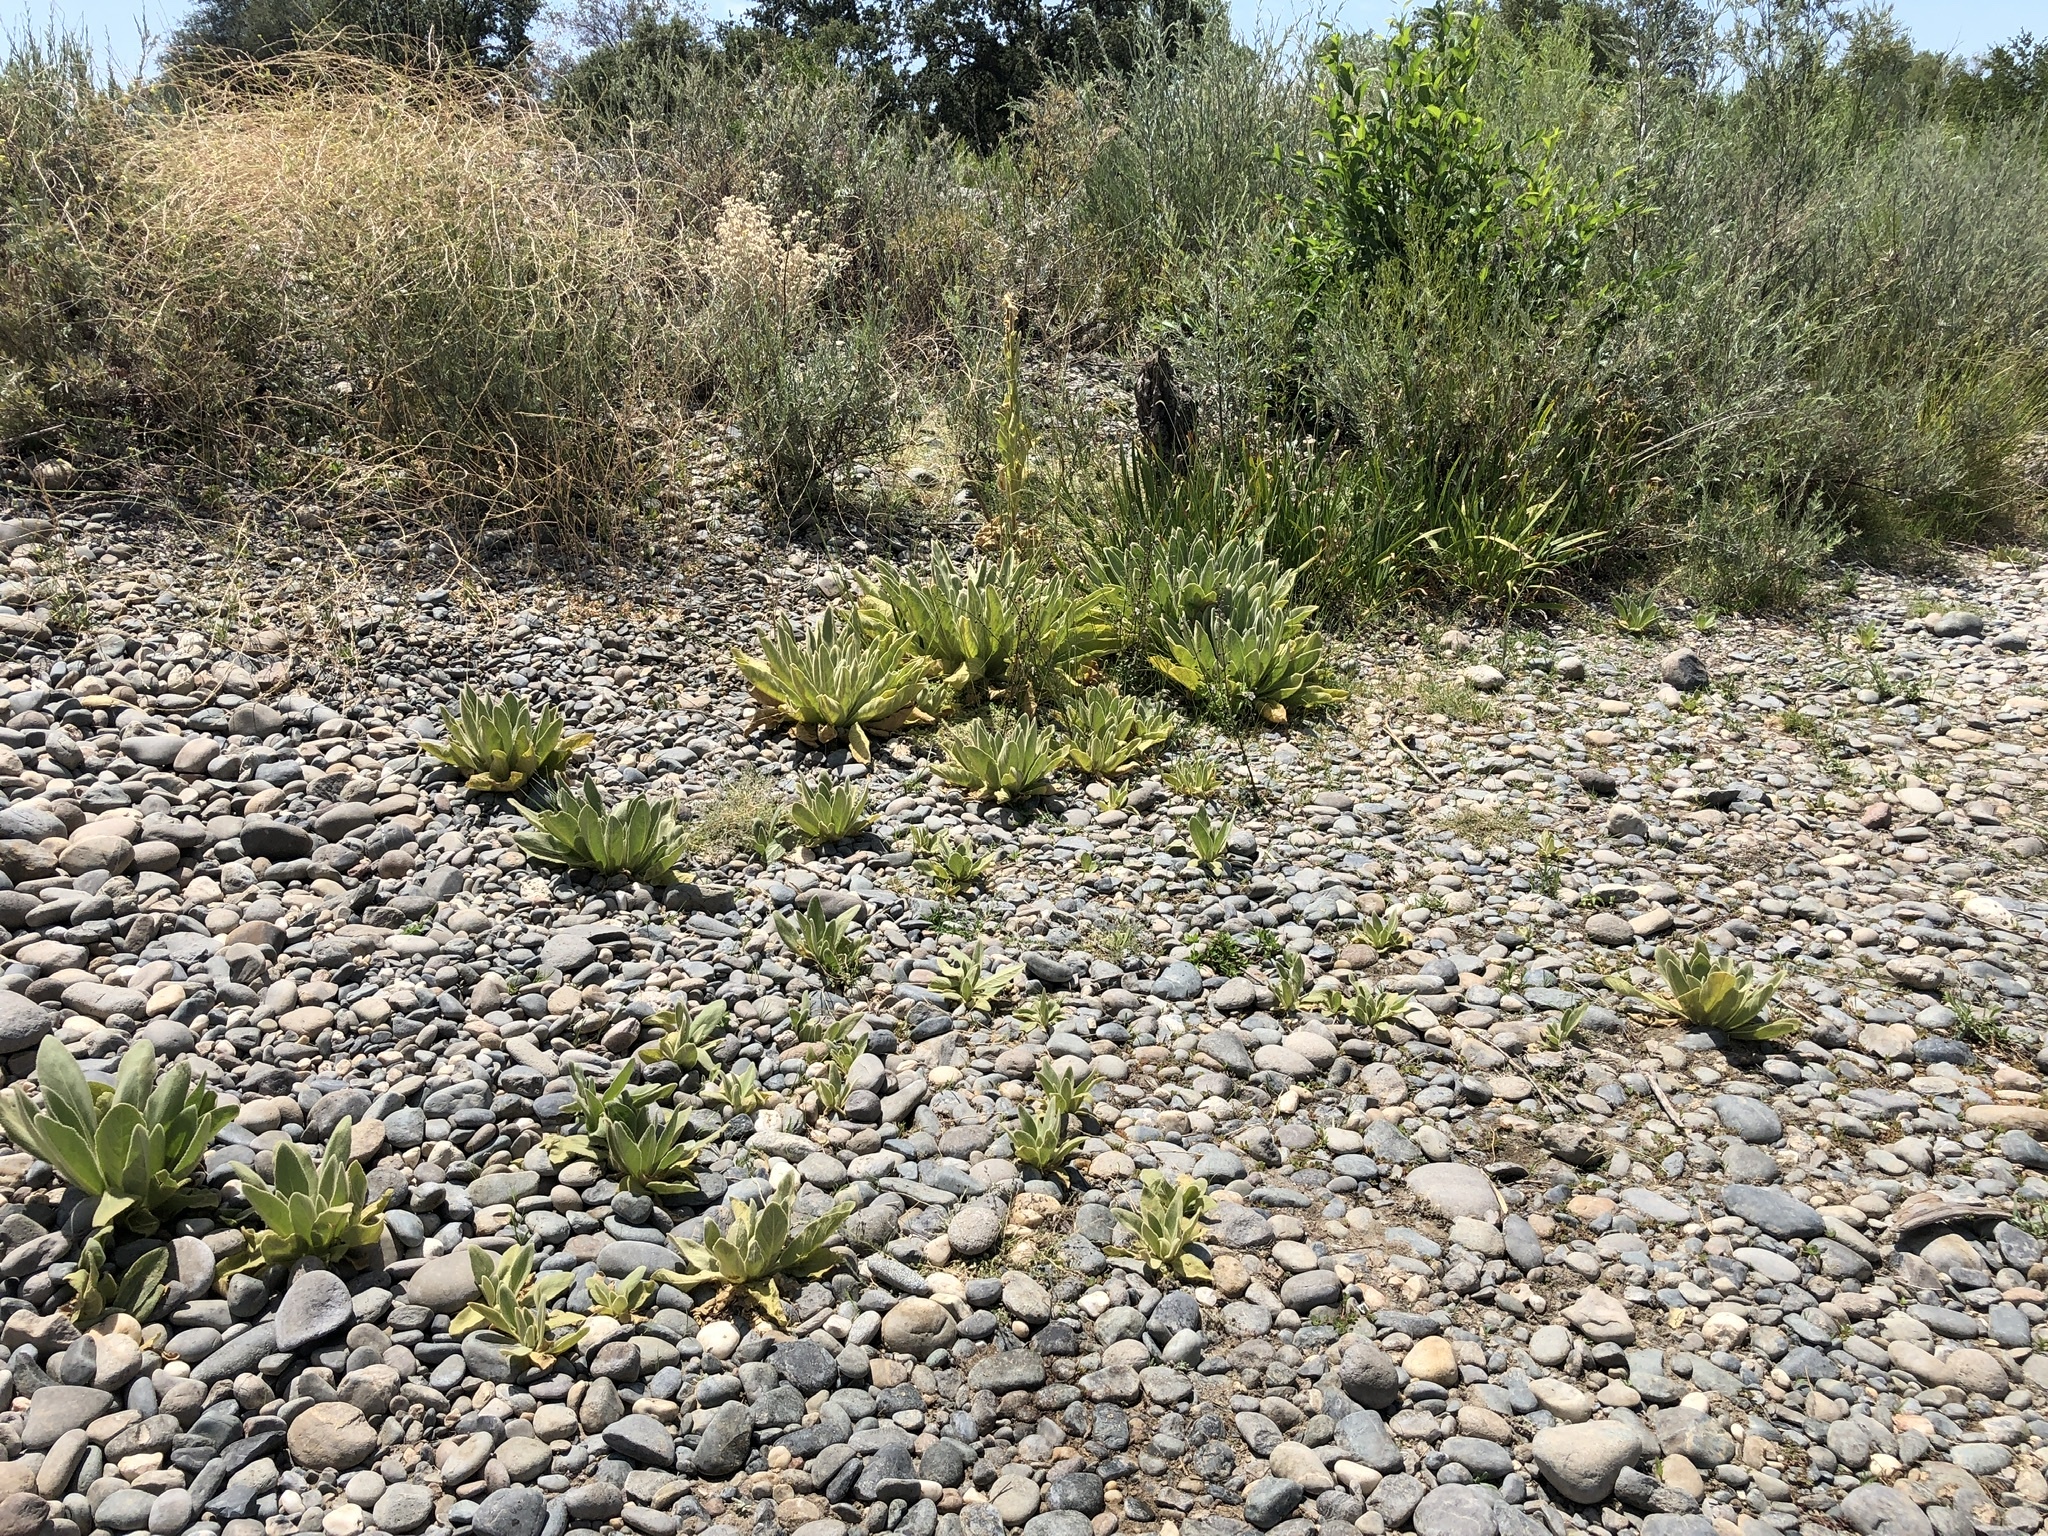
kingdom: Plantae
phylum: Tracheophyta
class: Magnoliopsida
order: Lamiales
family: Scrophulariaceae
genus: Verbascum
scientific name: Verbascum thapsus
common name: Common mullein
